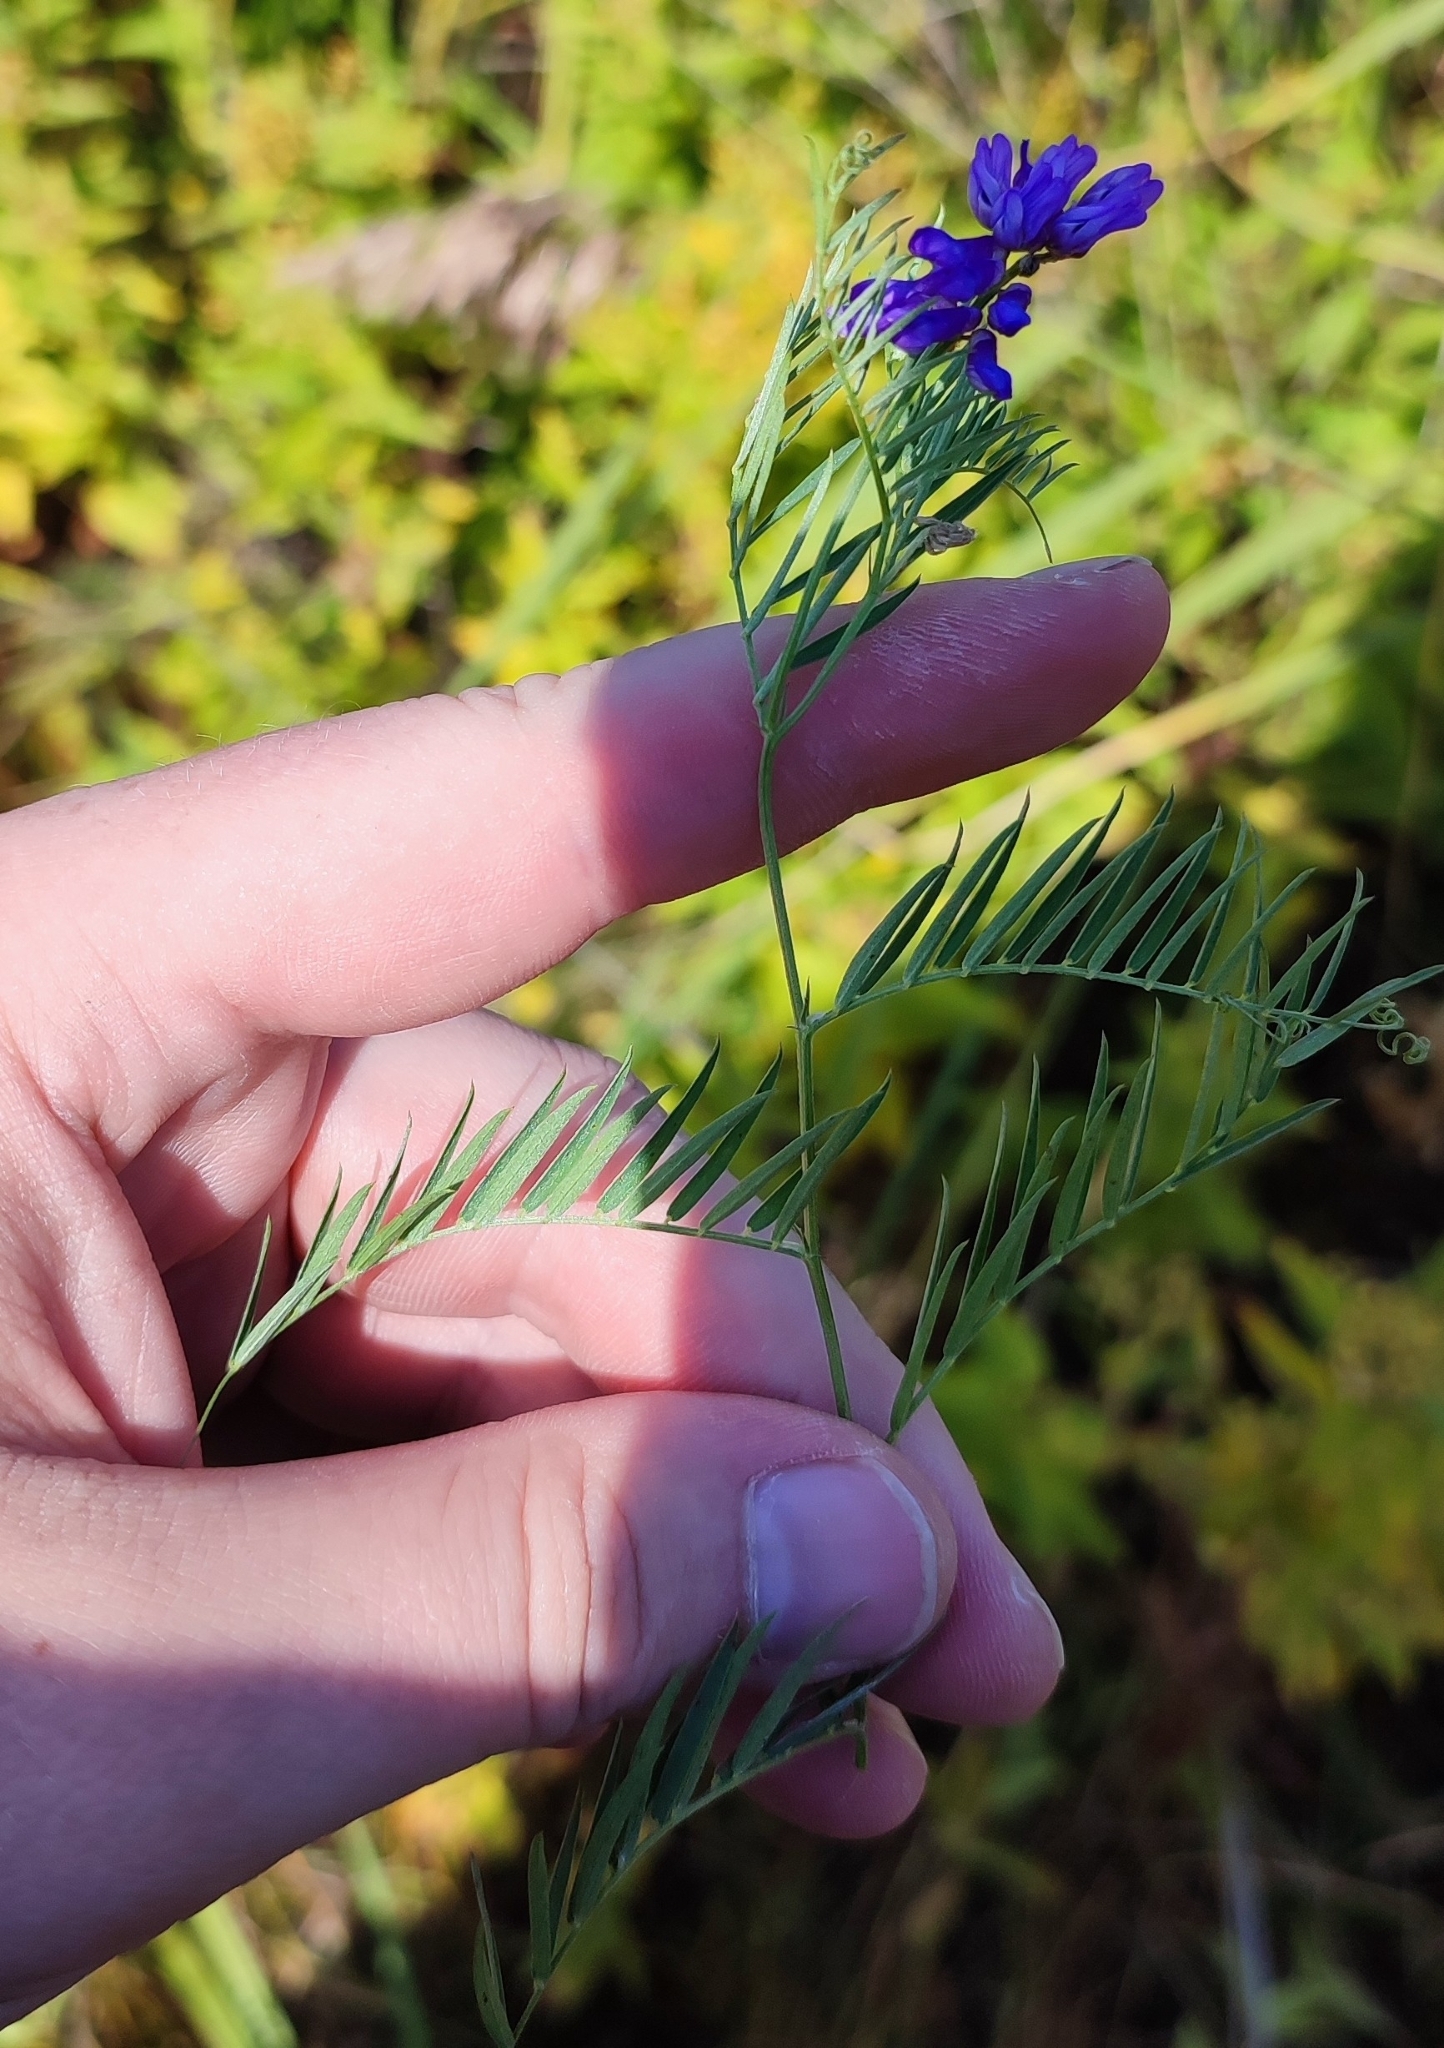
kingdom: Plantae
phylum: Tracheophyta
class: Magnoliopsida
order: Fabales
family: Fabaceae
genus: Vicia
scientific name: Vicia tenuifolia
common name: Fine-leaved vetch
